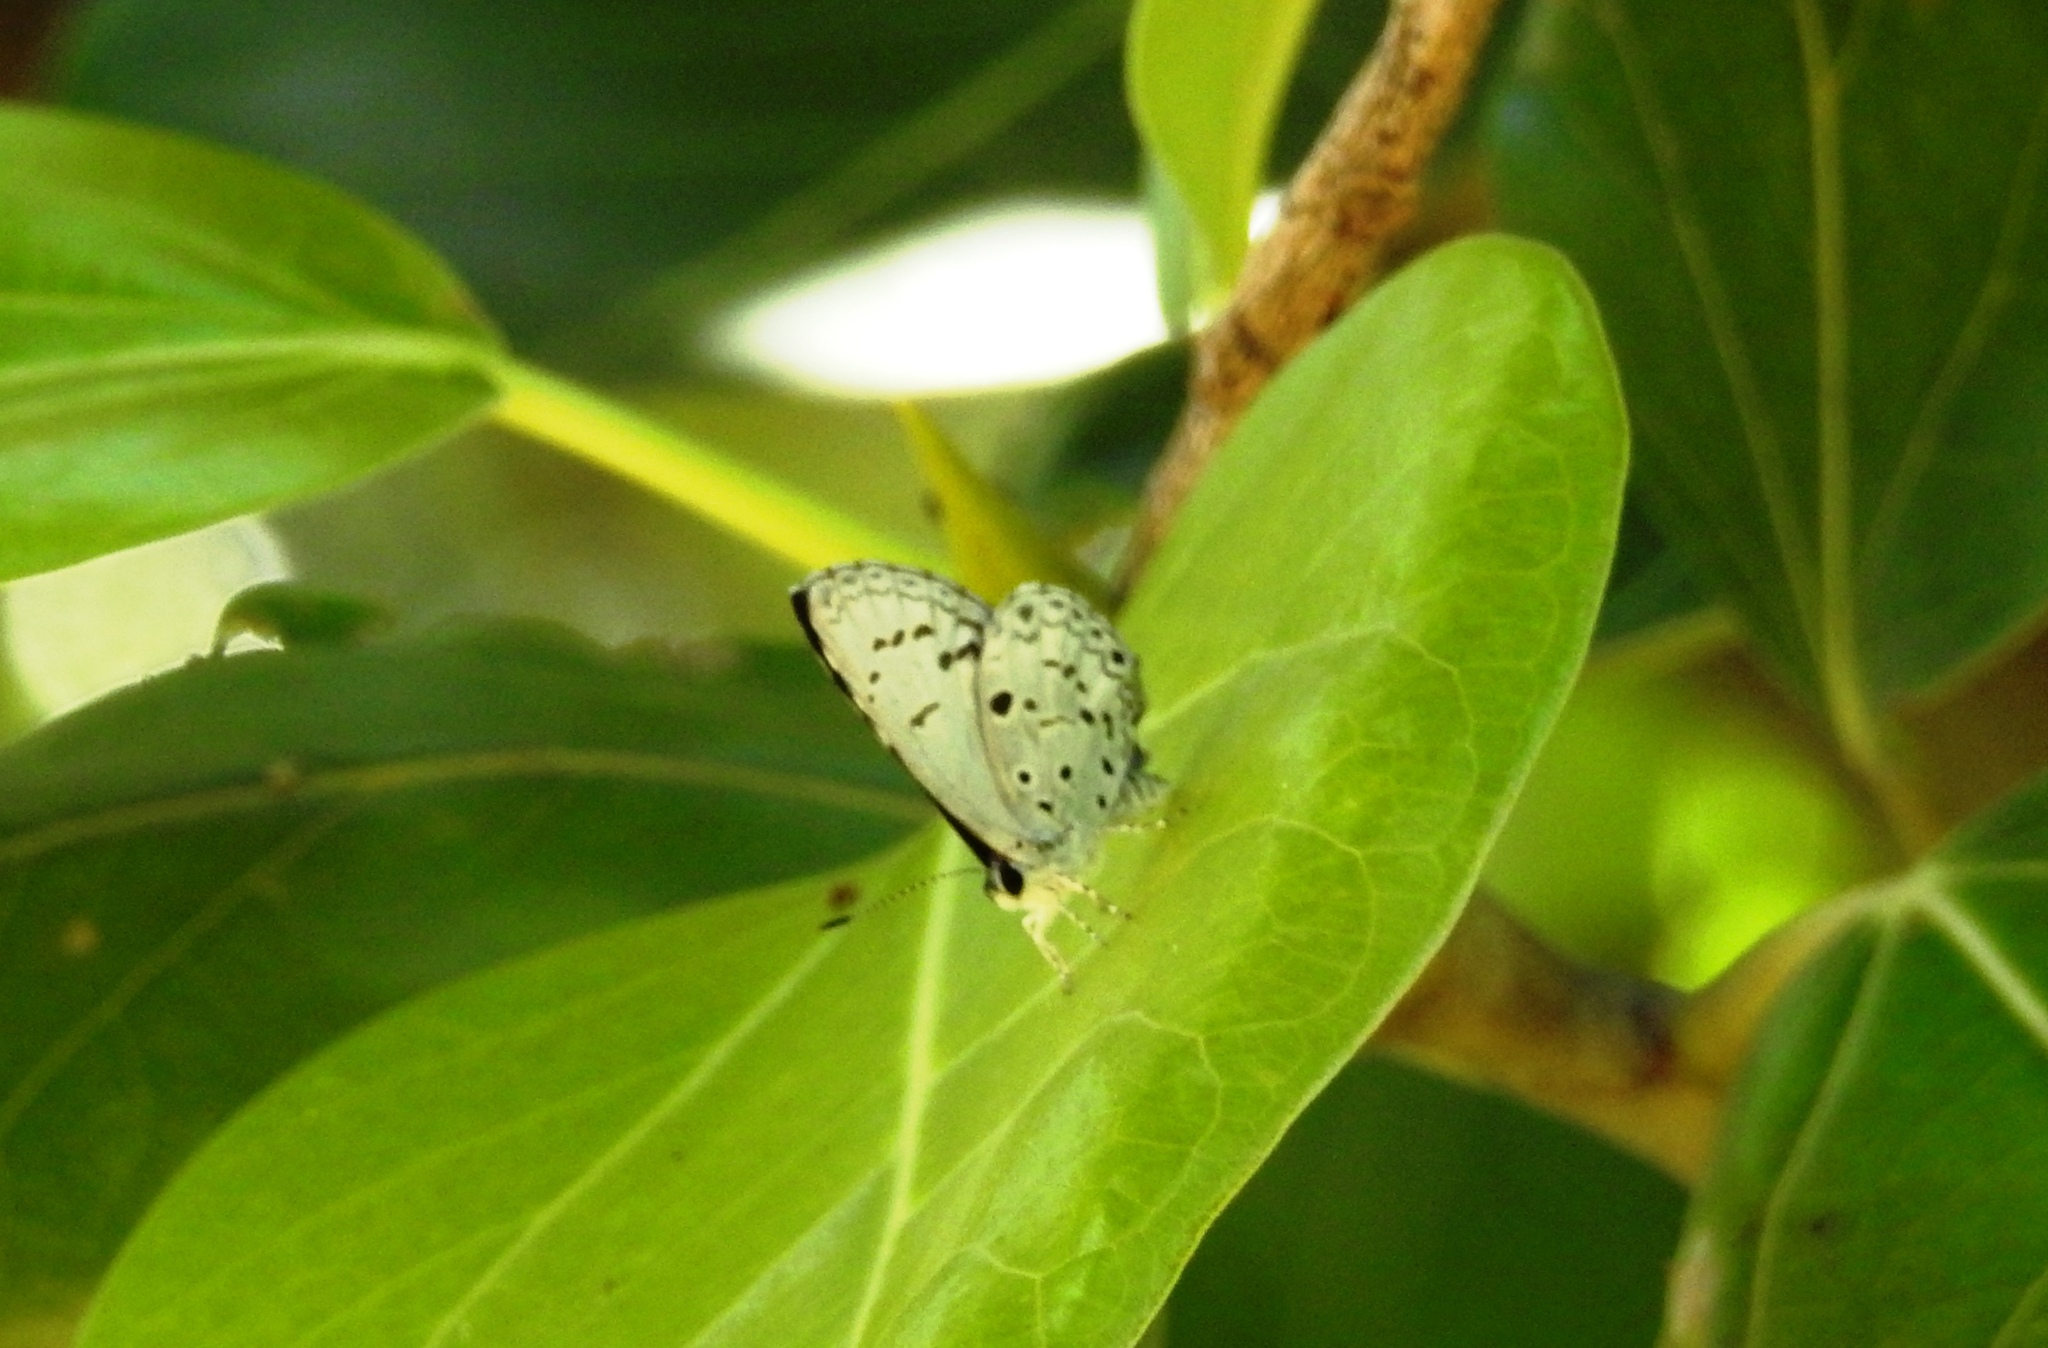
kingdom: Animalia
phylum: Arthropoda
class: Insecta
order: Lepidoptera
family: Lycaenidae
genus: Acytolepis
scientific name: Acytolepis puspa
